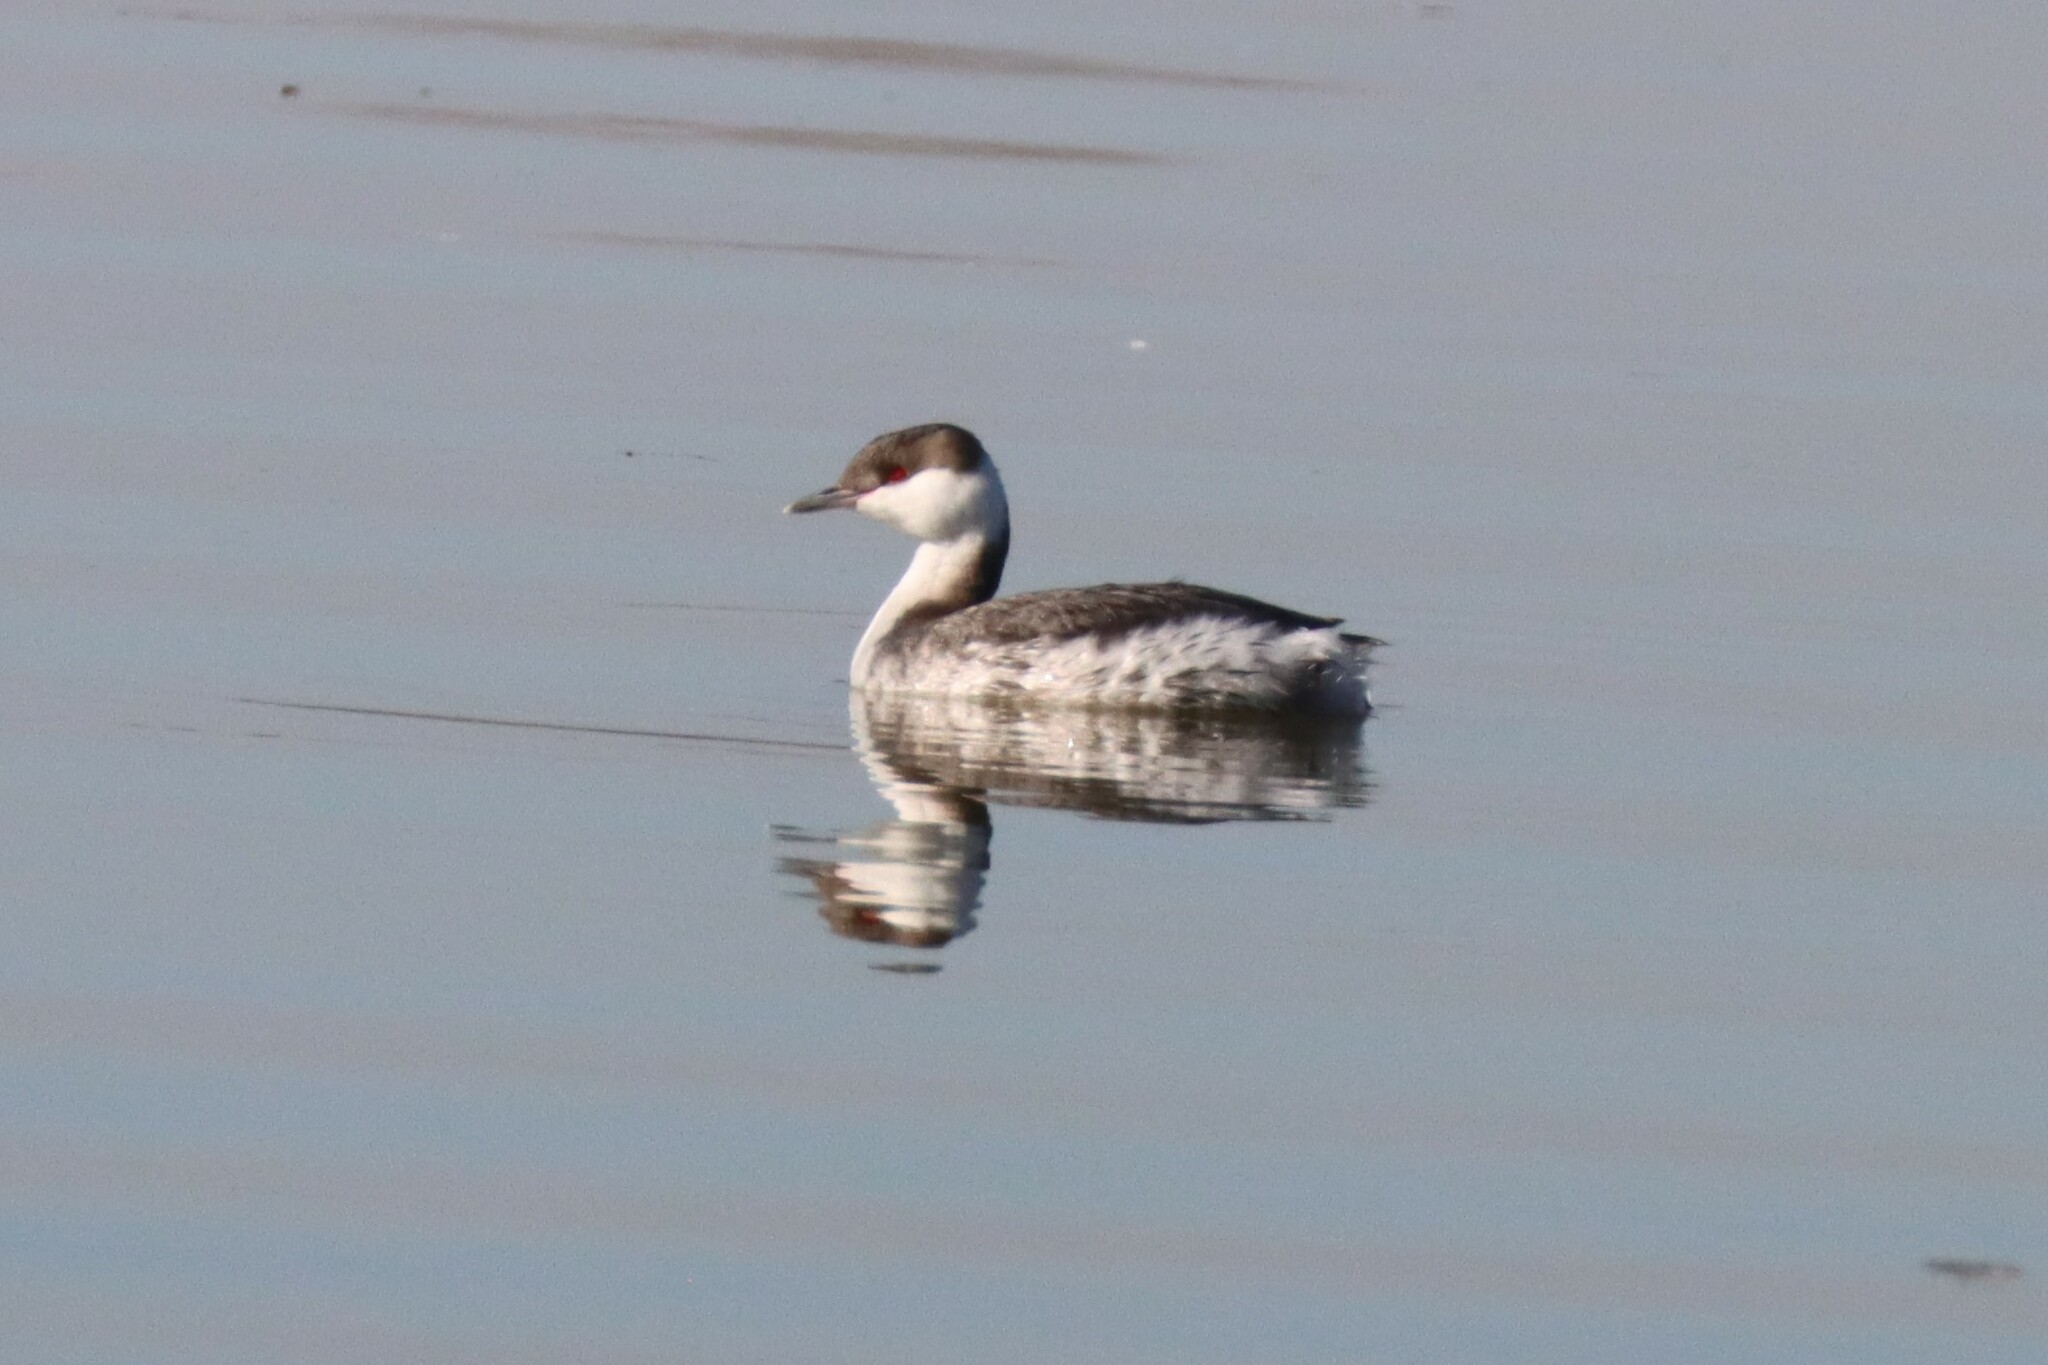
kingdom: Animalia
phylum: Chordata
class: Aves
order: Podicipediformes
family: Podicipedidae
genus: Podiceps
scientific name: Podiceps auritus
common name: Horned grebe
